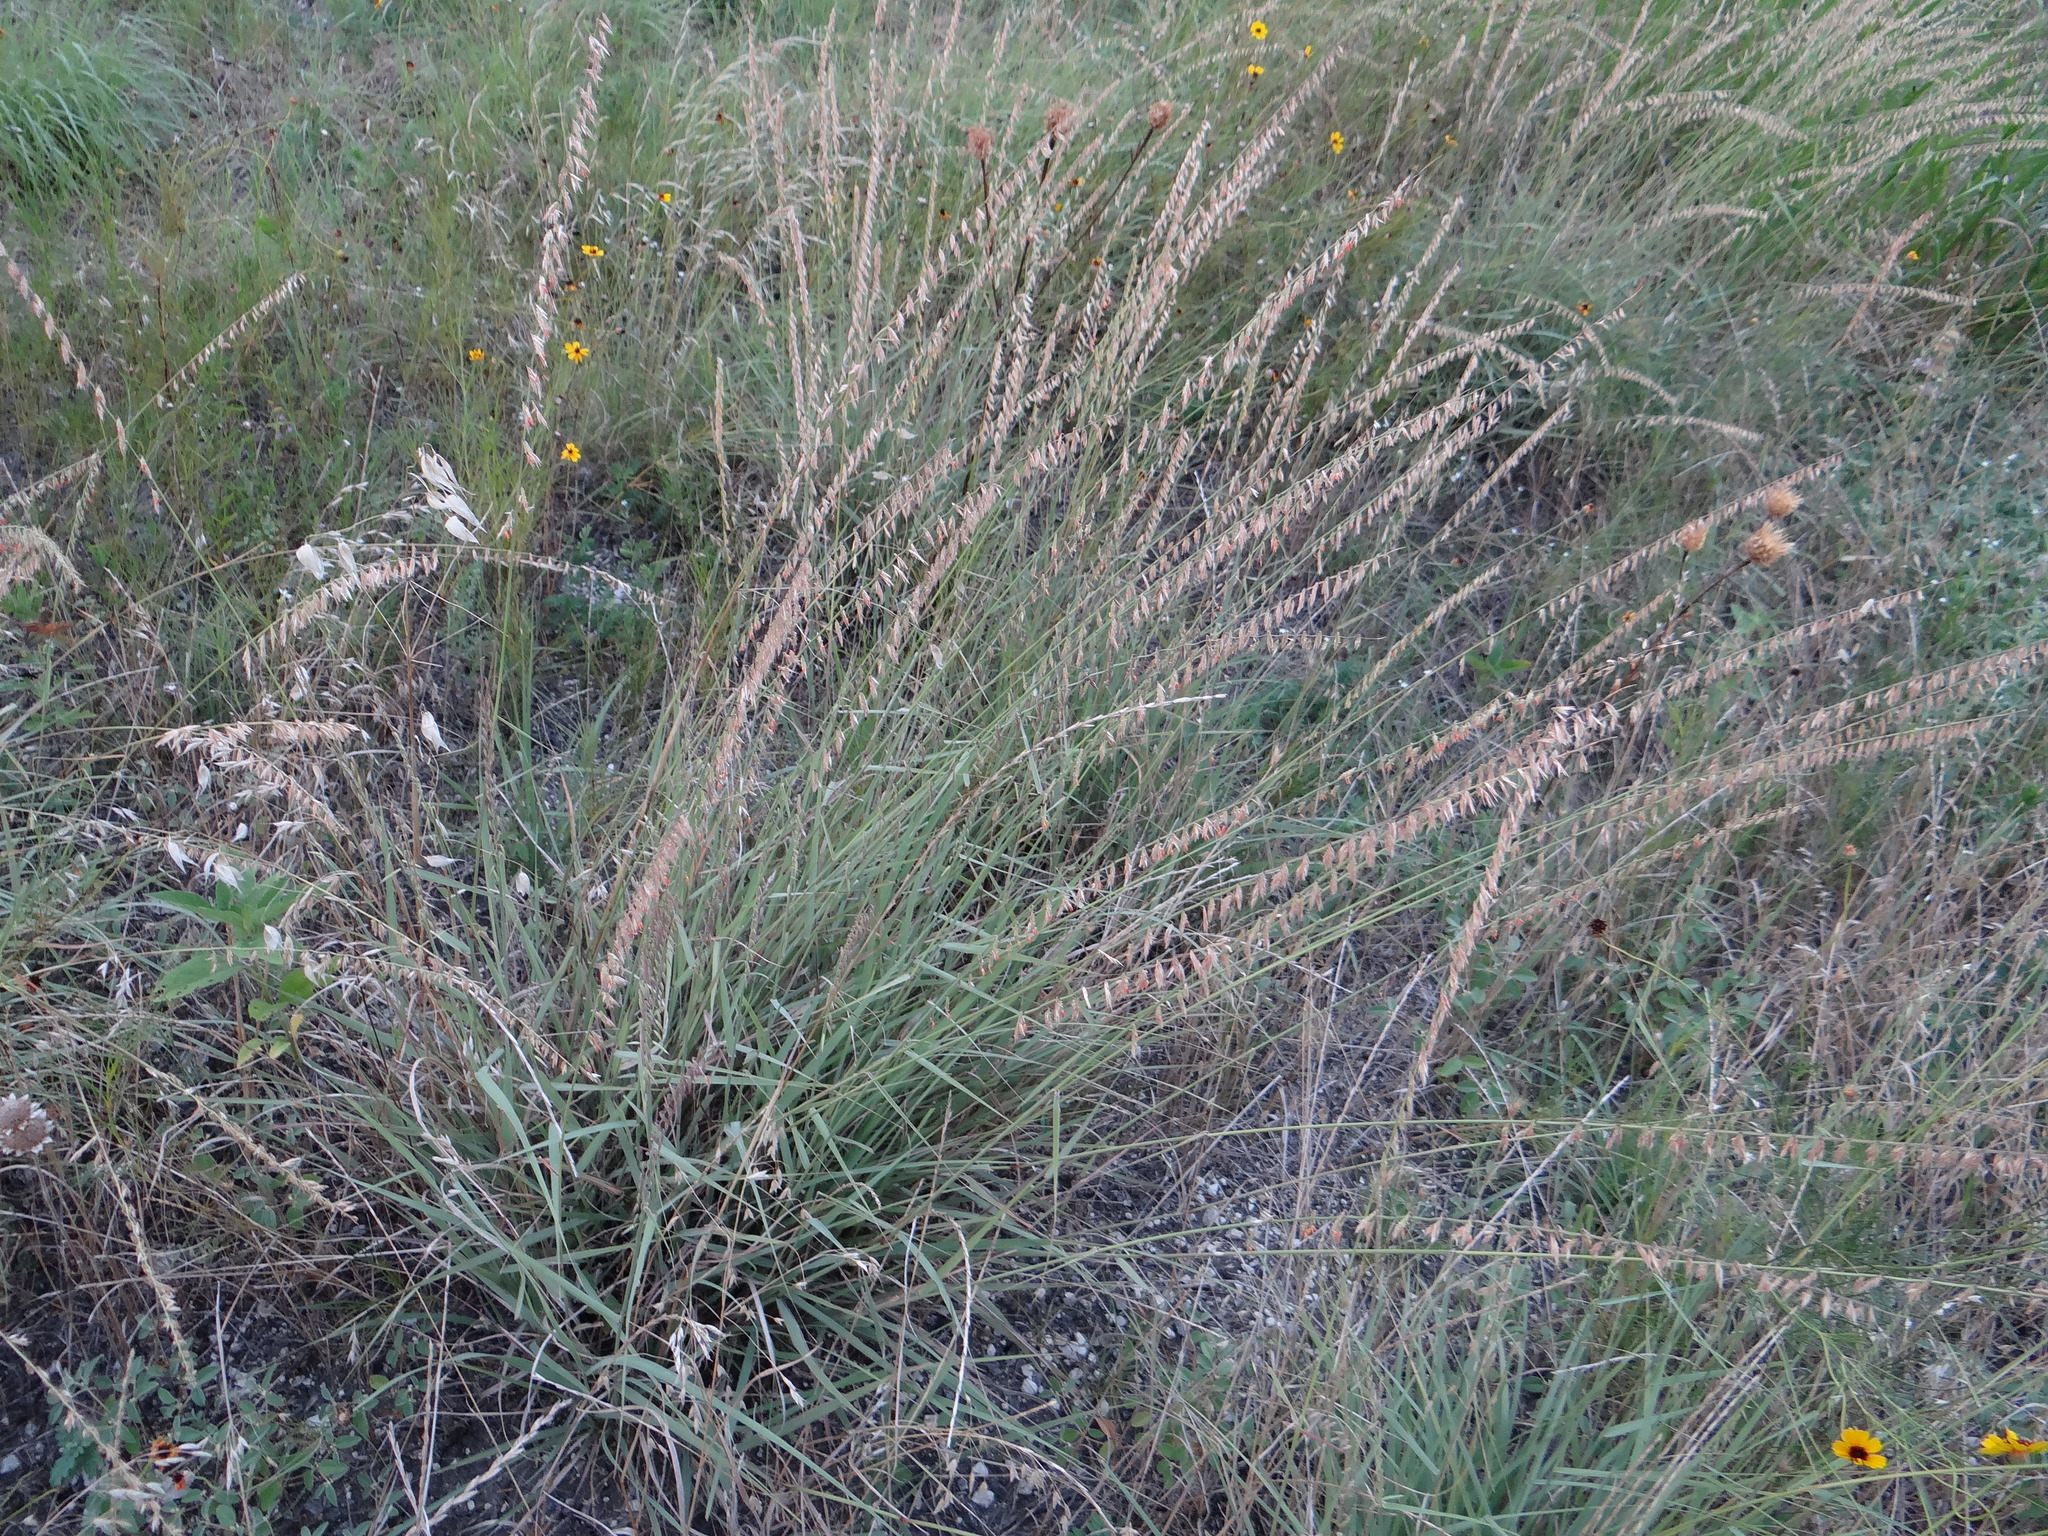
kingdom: Plantae
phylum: Tracheophyta
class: Liliopsida
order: Poales
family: Poaceae
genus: Bouteloua
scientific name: Bouteloua curtipendula
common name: Side-oats grama
